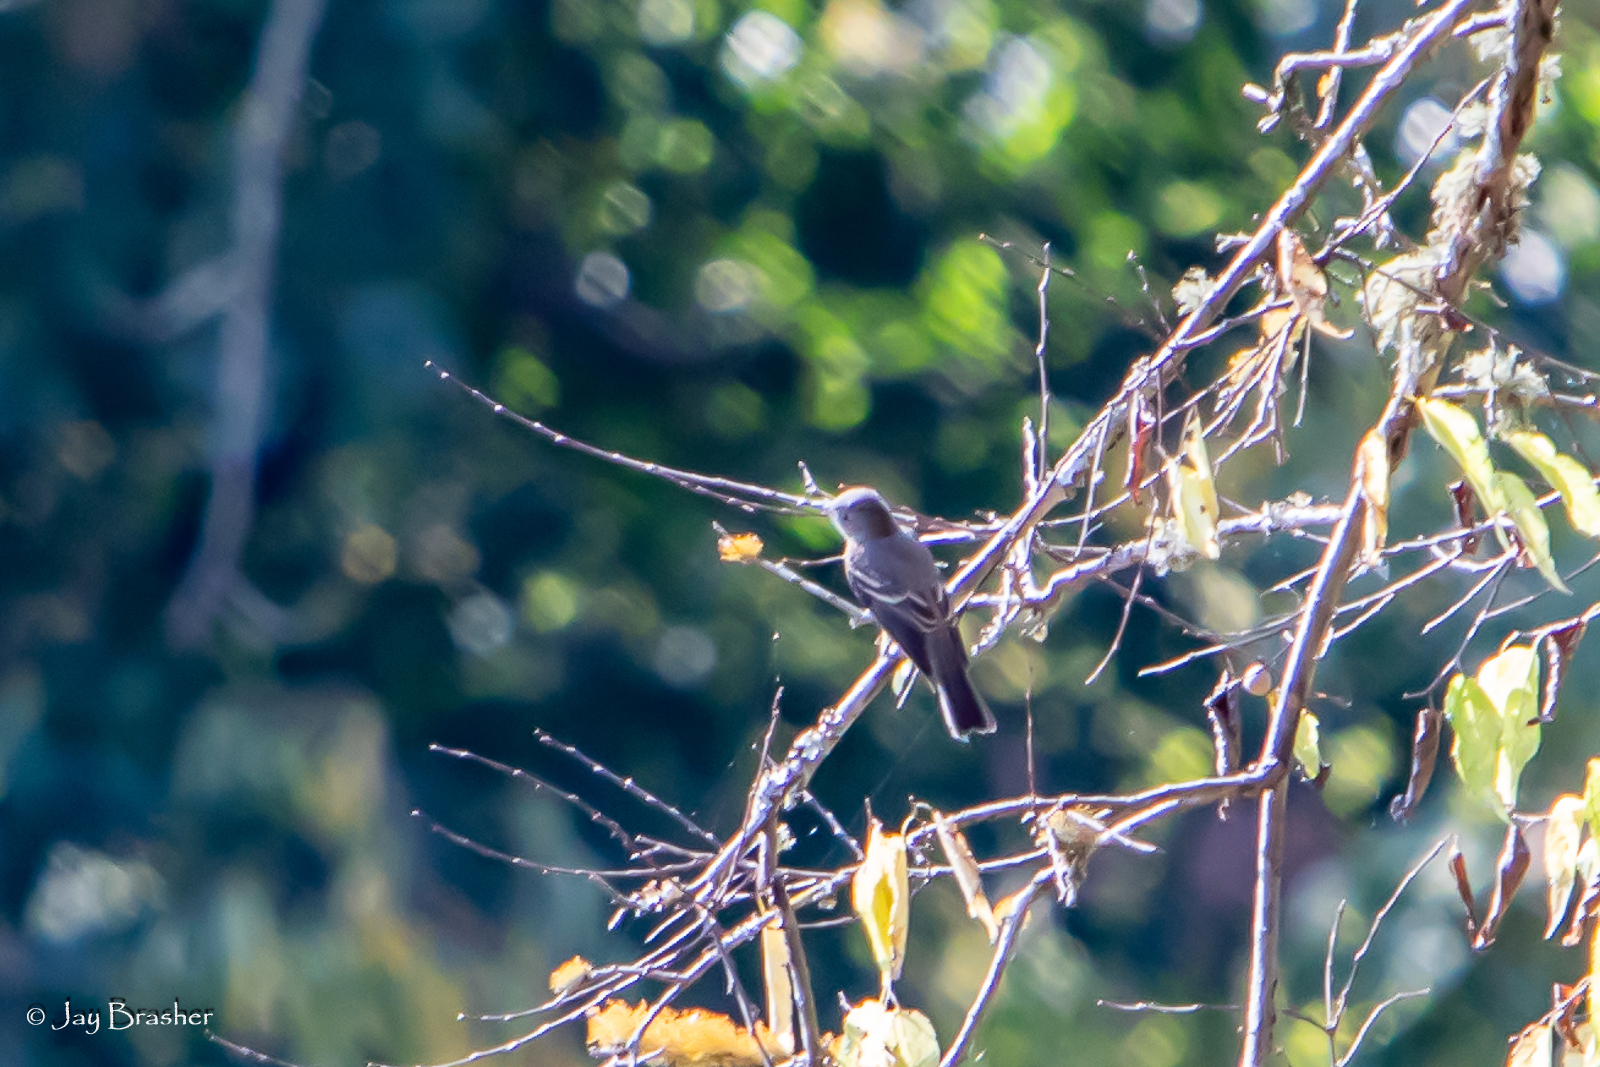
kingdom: Animalia
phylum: Chordata
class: Aves
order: Passeriformes
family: Tyrannidae
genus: Contopus
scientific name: Contopus virens
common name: Eastern wood-pewee
